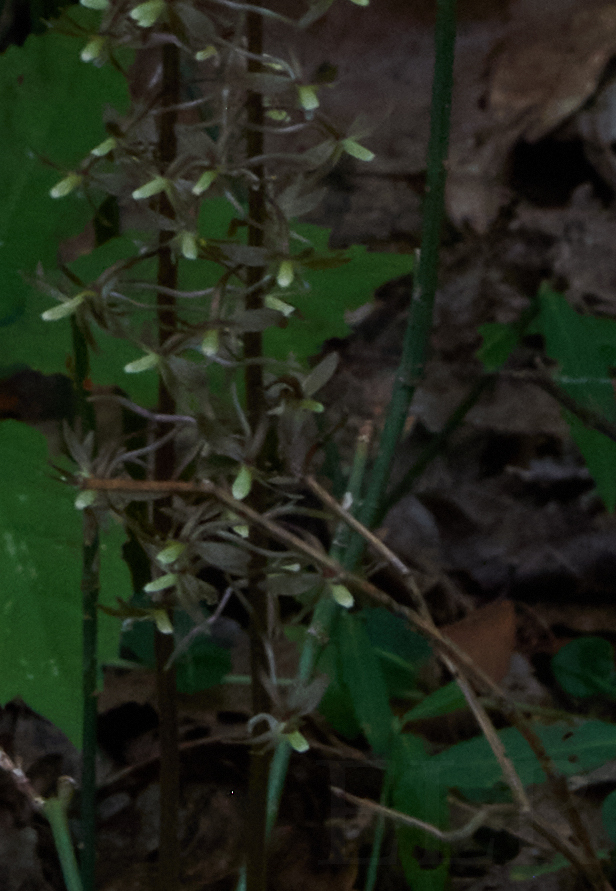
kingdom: Plantae
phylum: Tracheophyta
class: Liliopsida
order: Asparagales
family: Orchidaceae
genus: Tipularia
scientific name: Tipularia discolor
